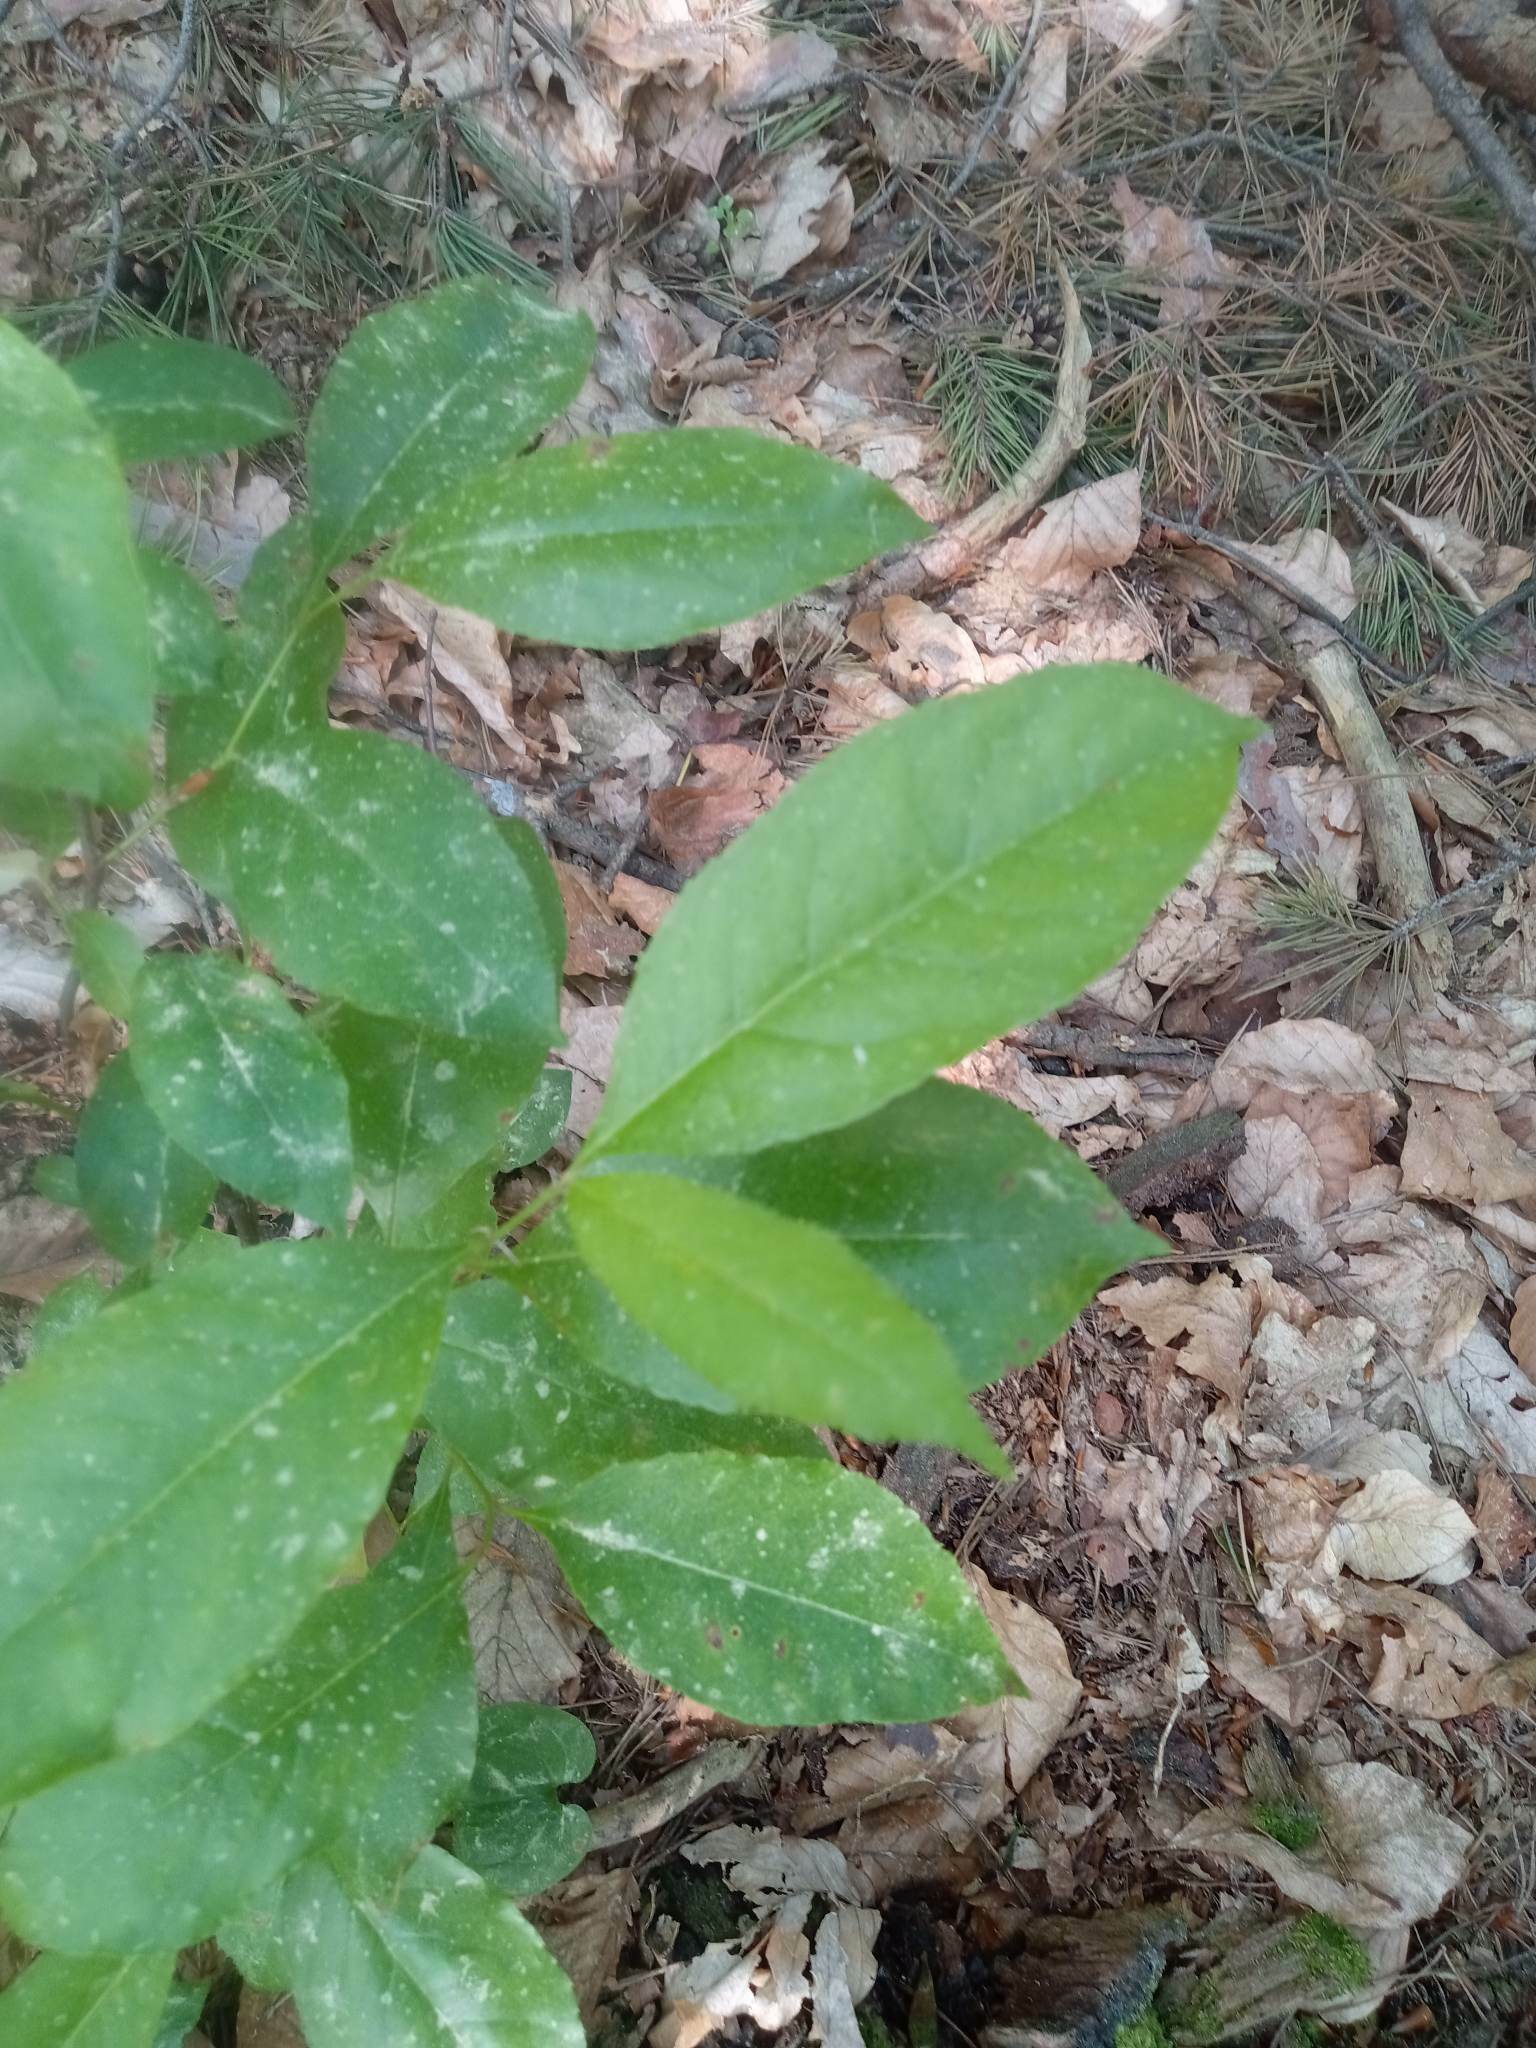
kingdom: Plantae
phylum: Tracheophyta
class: Magnoliopsida
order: Rosales
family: Rosaceae
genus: Prunus
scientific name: Prunus serotina
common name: Black cherry
